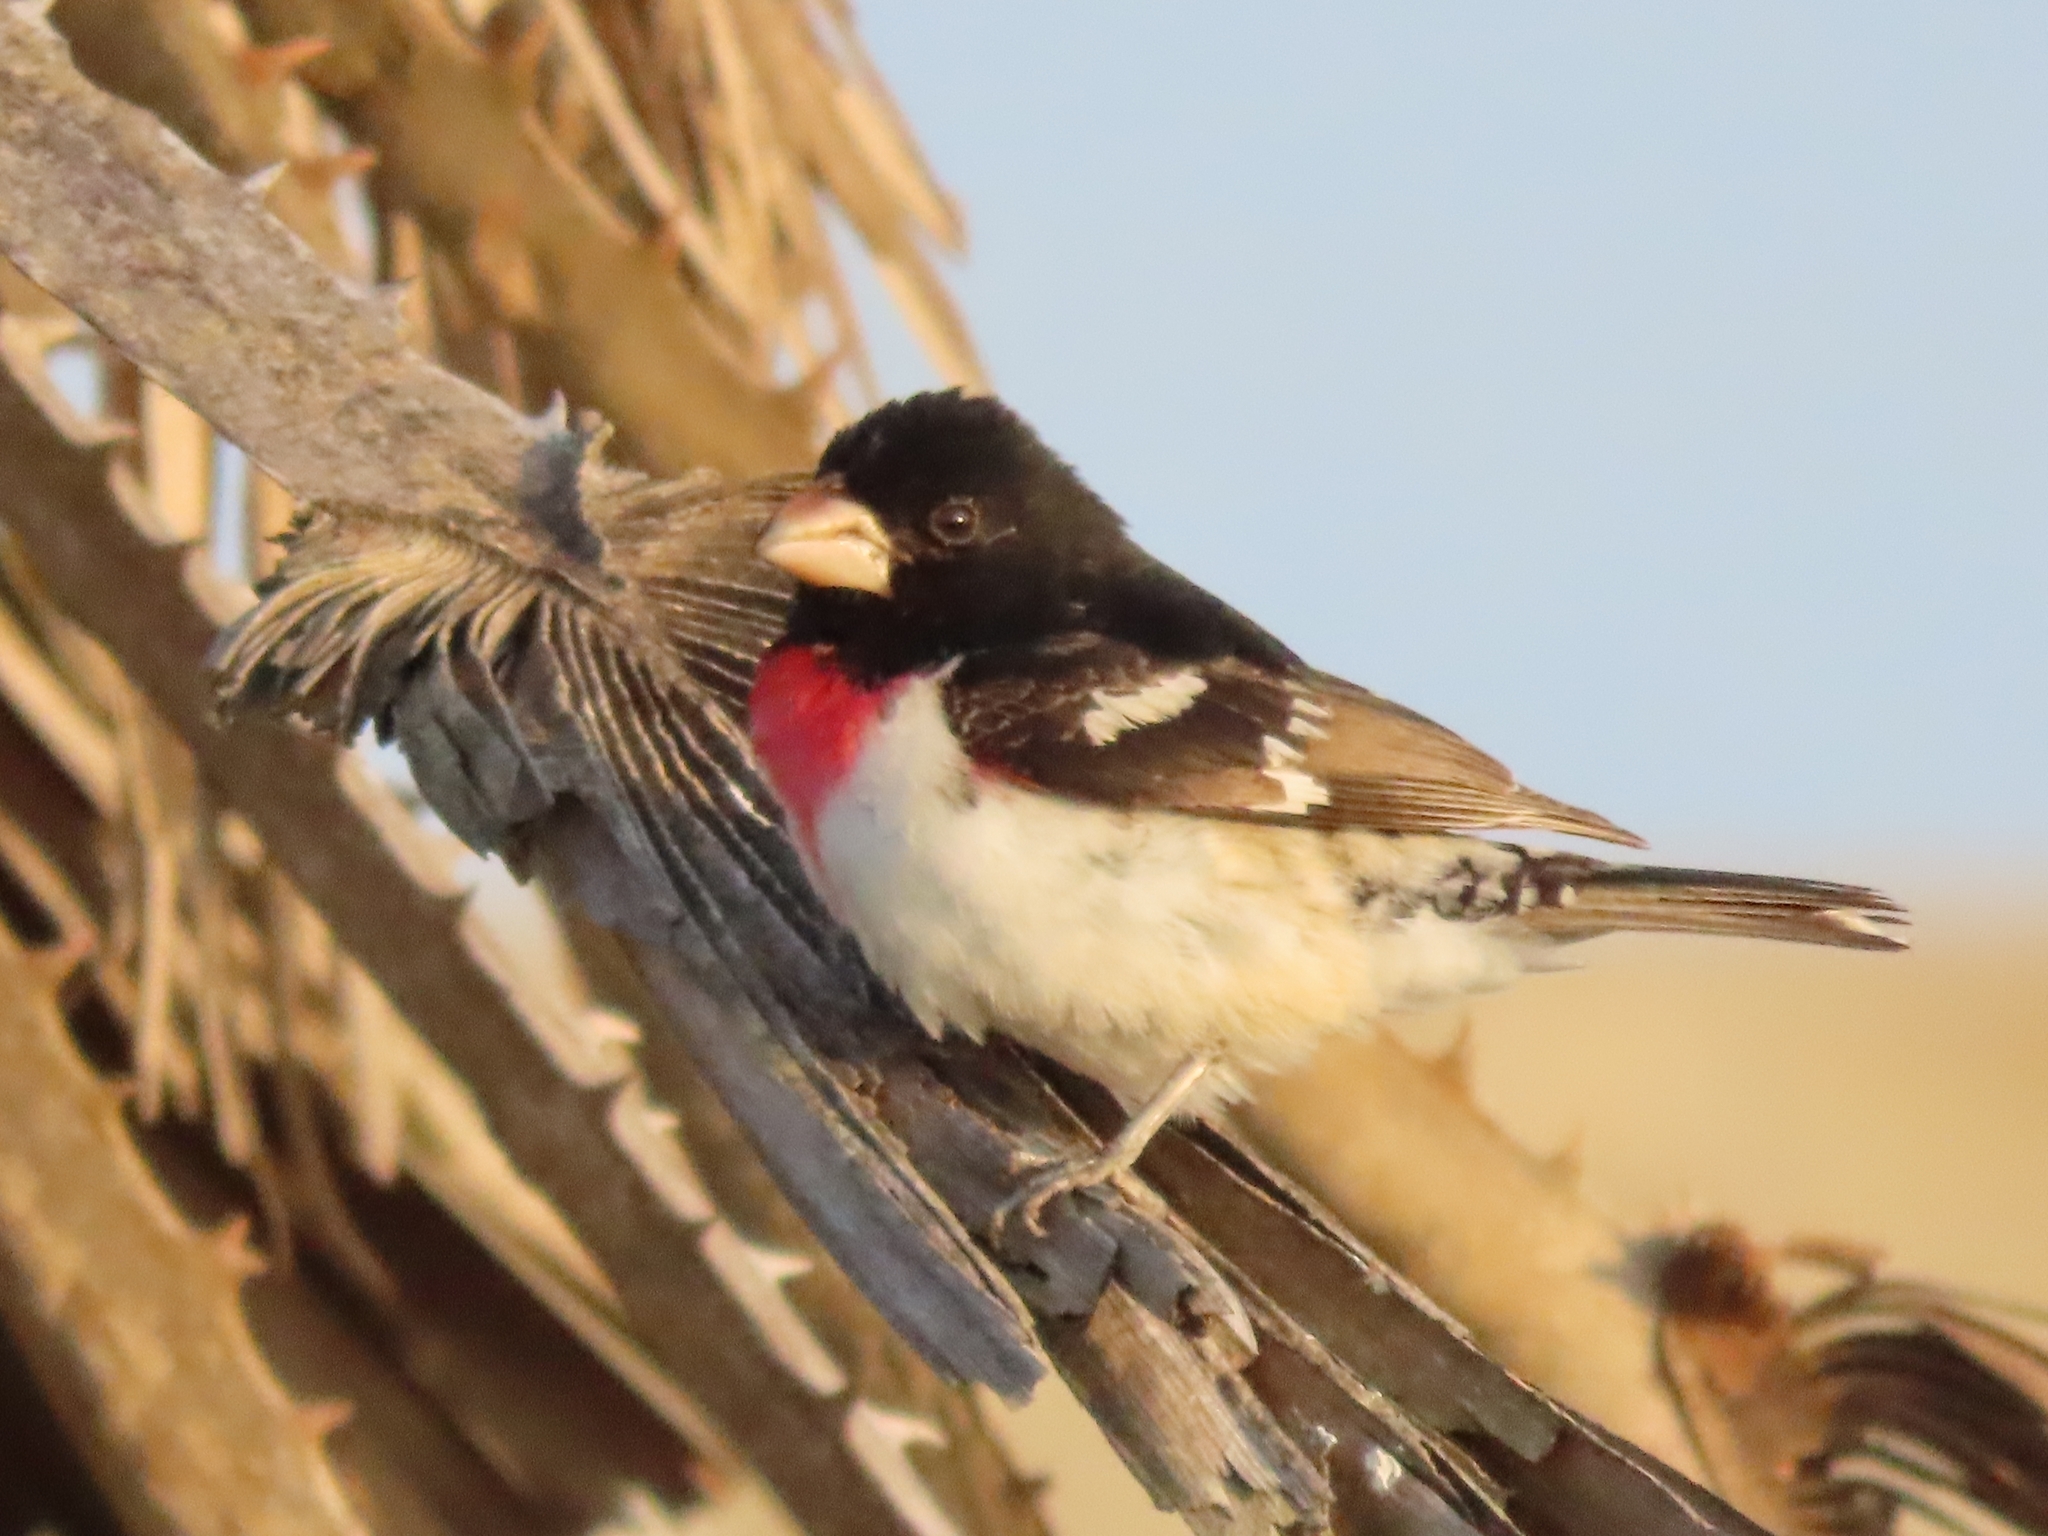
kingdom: Animalia
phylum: Chordata
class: Aves
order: Passeriformes
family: Cardinalidae
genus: Pheucticus
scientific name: Pheucticus ludovicianus
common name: Rose-breasted grosbeak
